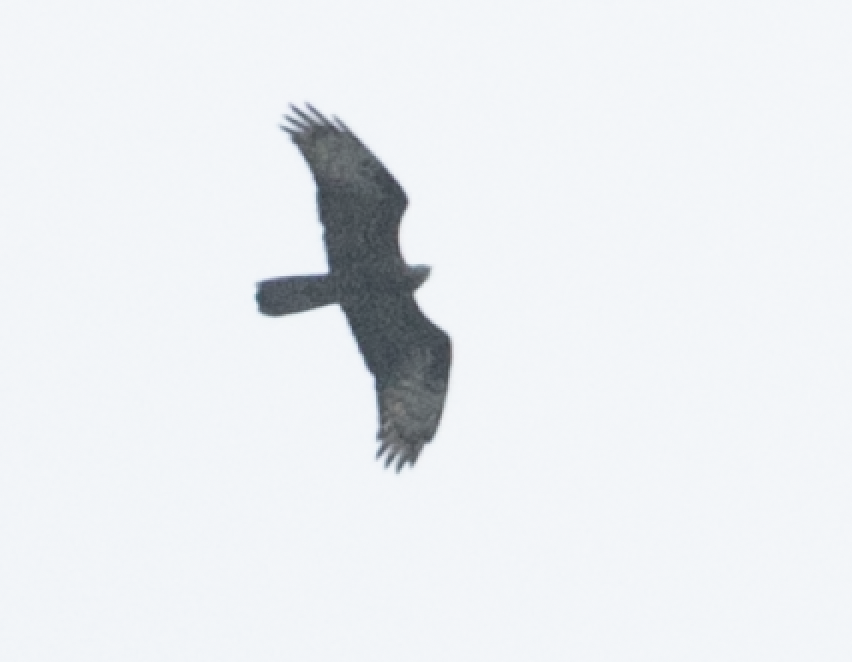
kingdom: Animalia
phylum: Chordata
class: Aves
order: Accipitriformes
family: Accipitridae
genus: Pernis
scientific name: Pernis apivorus
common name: European honey buzzard
